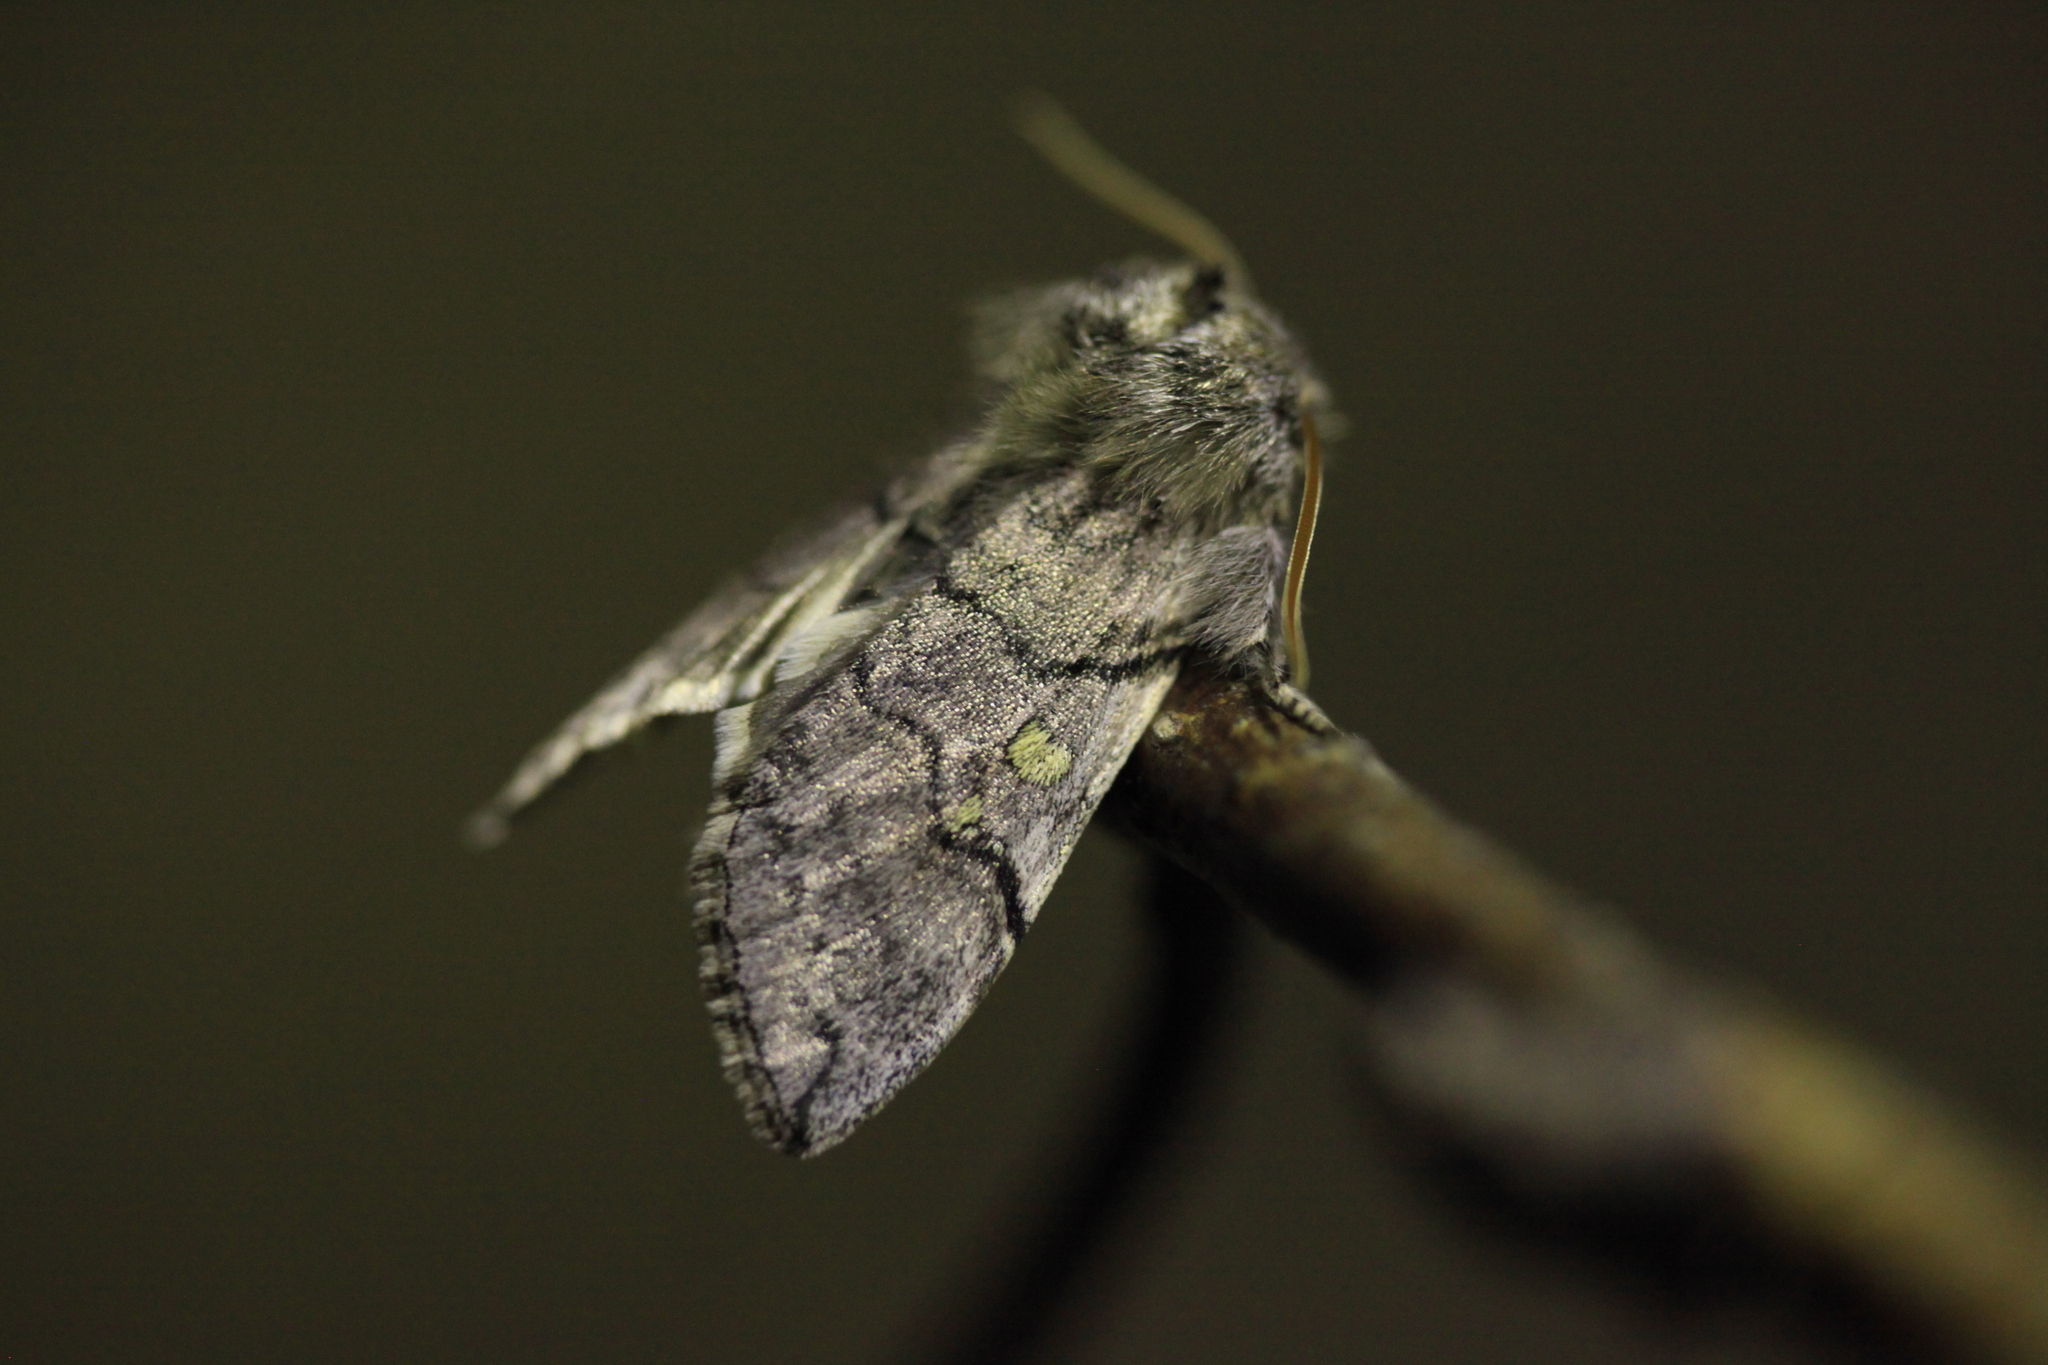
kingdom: Animalia
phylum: Arthropoda
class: Insecta
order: Lepidoptera
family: Drepanidae
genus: Achlya
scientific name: Achlya flavicornis
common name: Yellow horned
